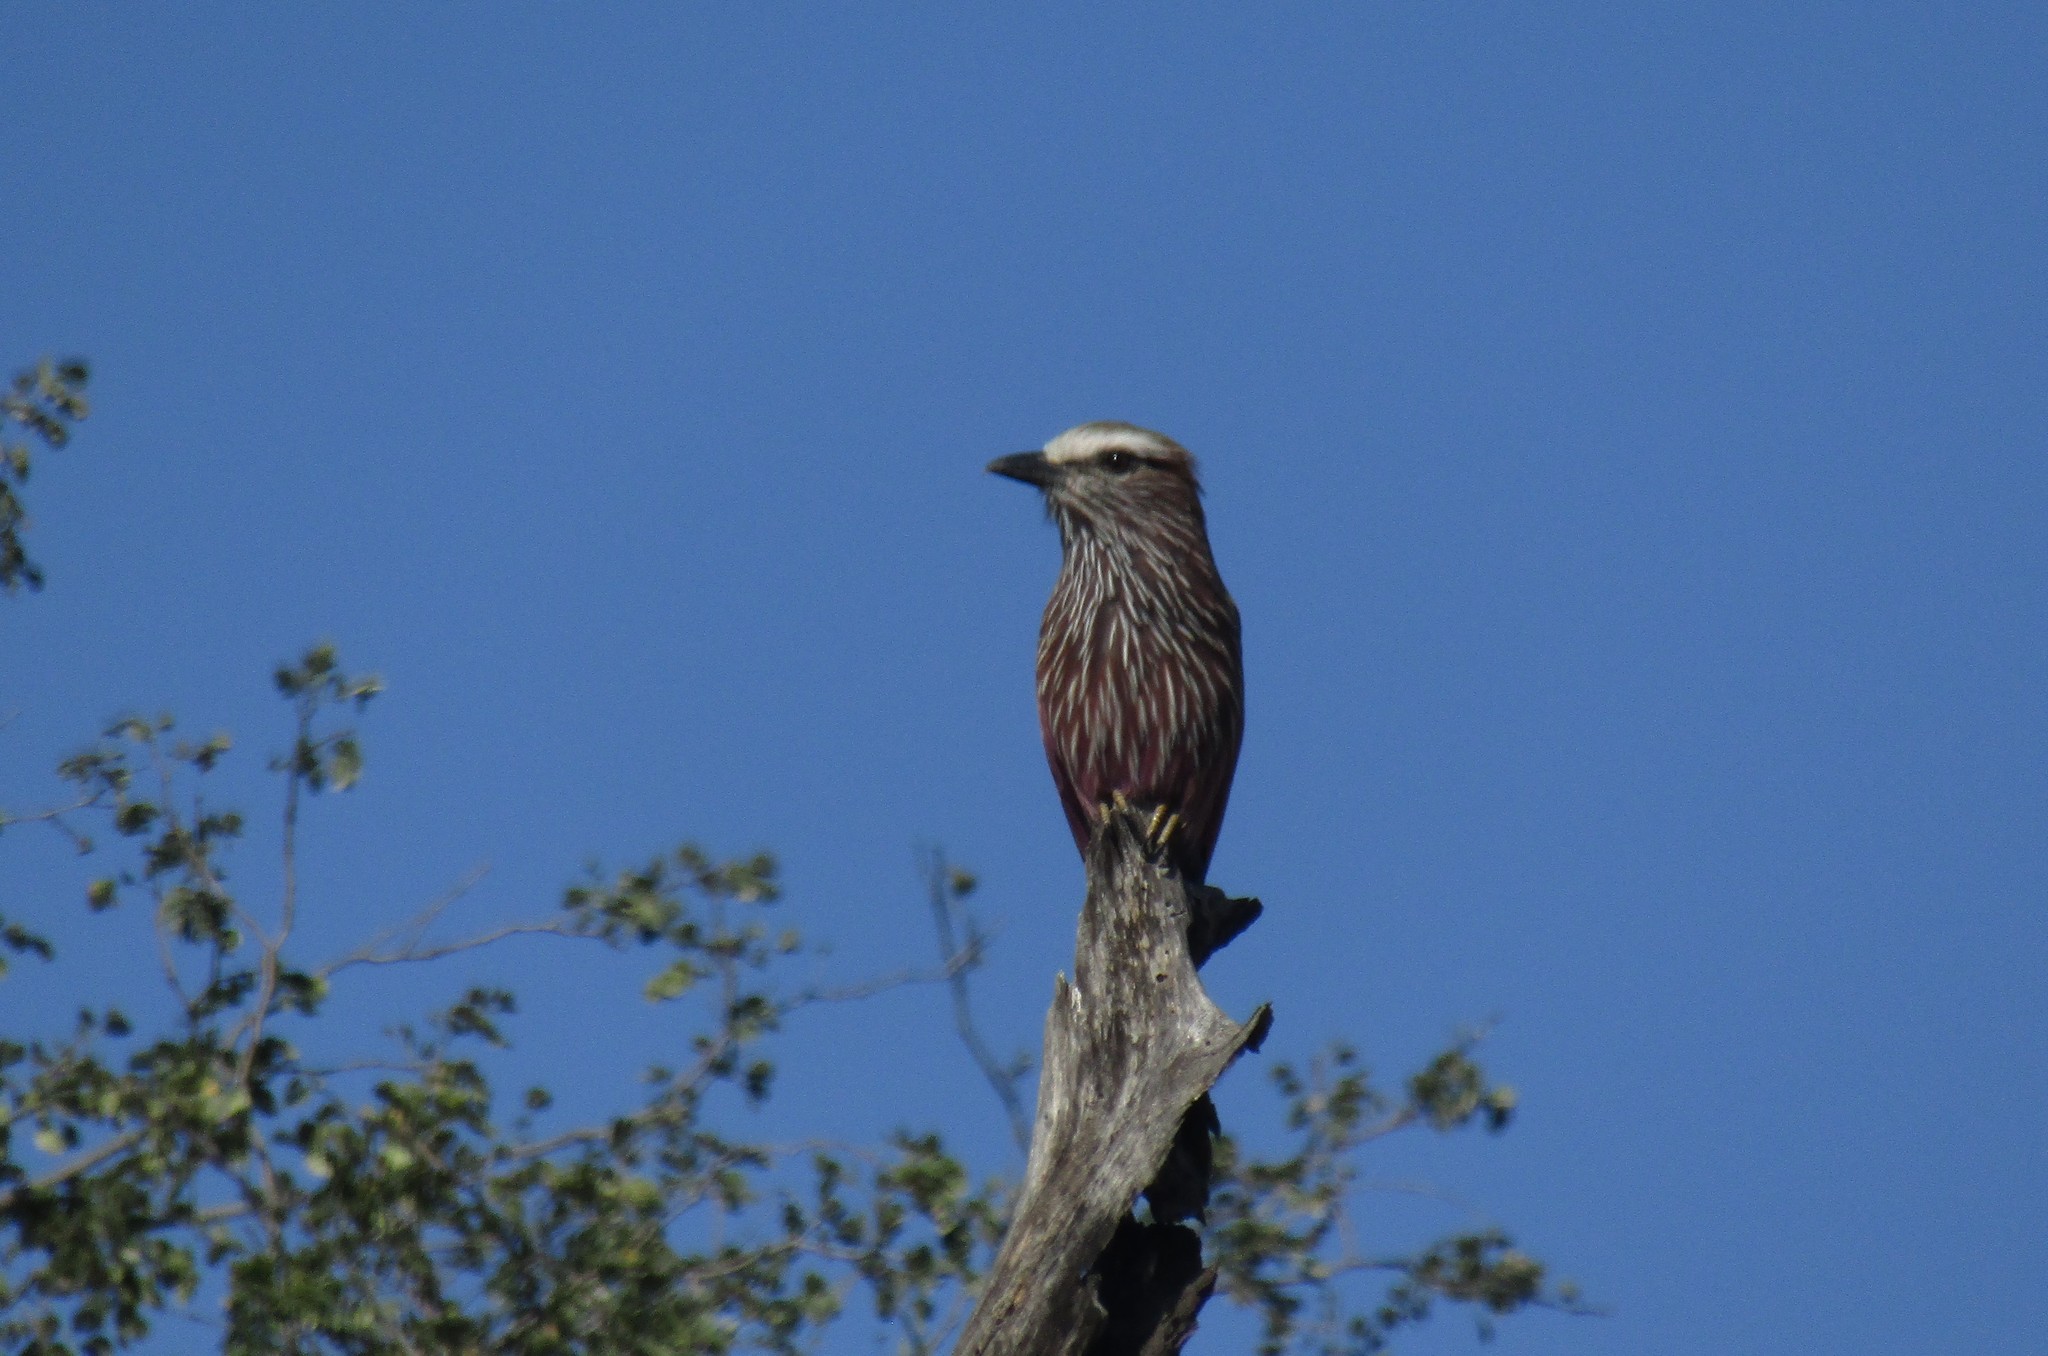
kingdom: Animalia
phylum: Chordata
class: Aves
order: Coraciiformes
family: Coraciidae
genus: Coracias
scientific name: Coracias naevius
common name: Purple roller
